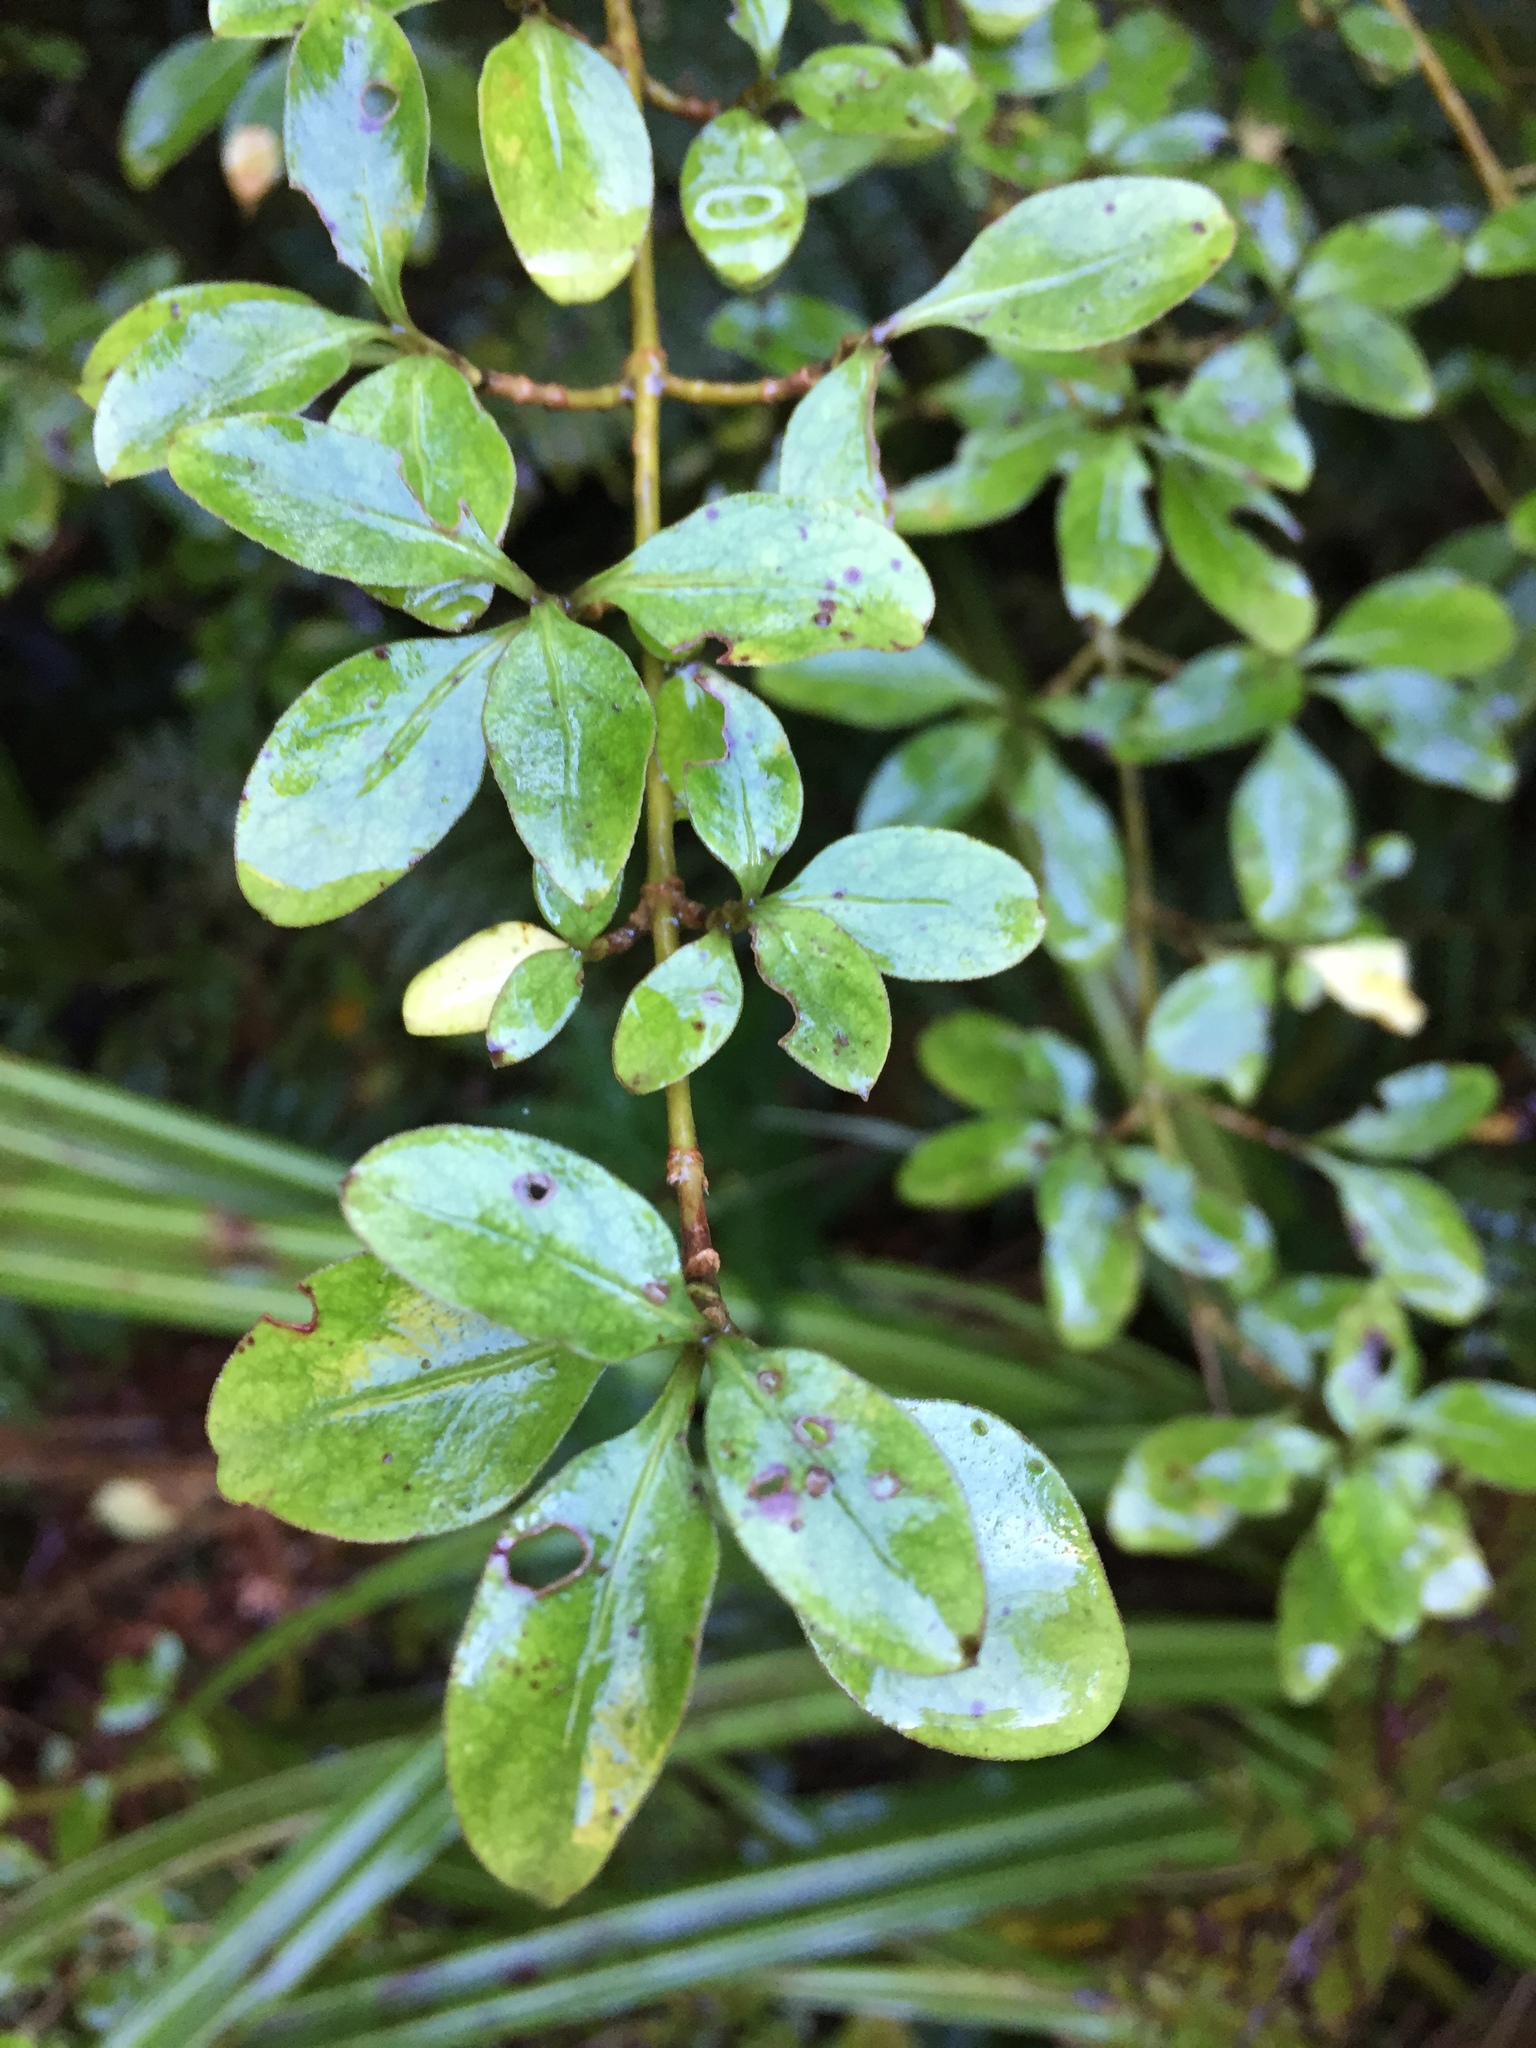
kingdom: Plantae
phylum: Tracheophyta
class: Magnoliopsida
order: Gentianales
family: Rubiaceae
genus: Coprosma
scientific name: Coprosma foetidissima
